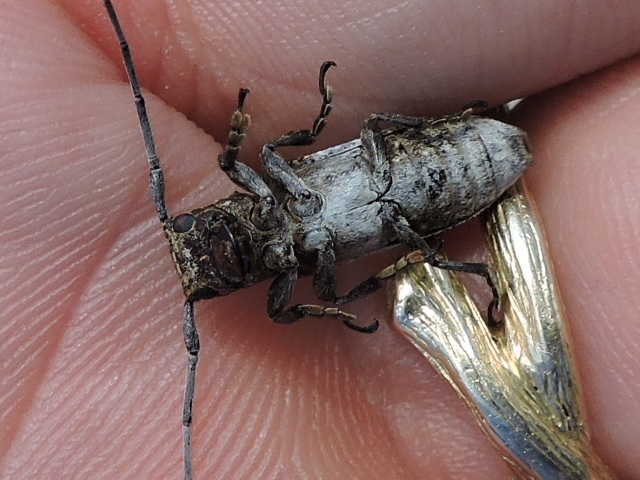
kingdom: Animalia
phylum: Arthropoda
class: Insecta
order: Coleoptera
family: Cerambycidae
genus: Oncideres
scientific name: Oncideres cingulata
